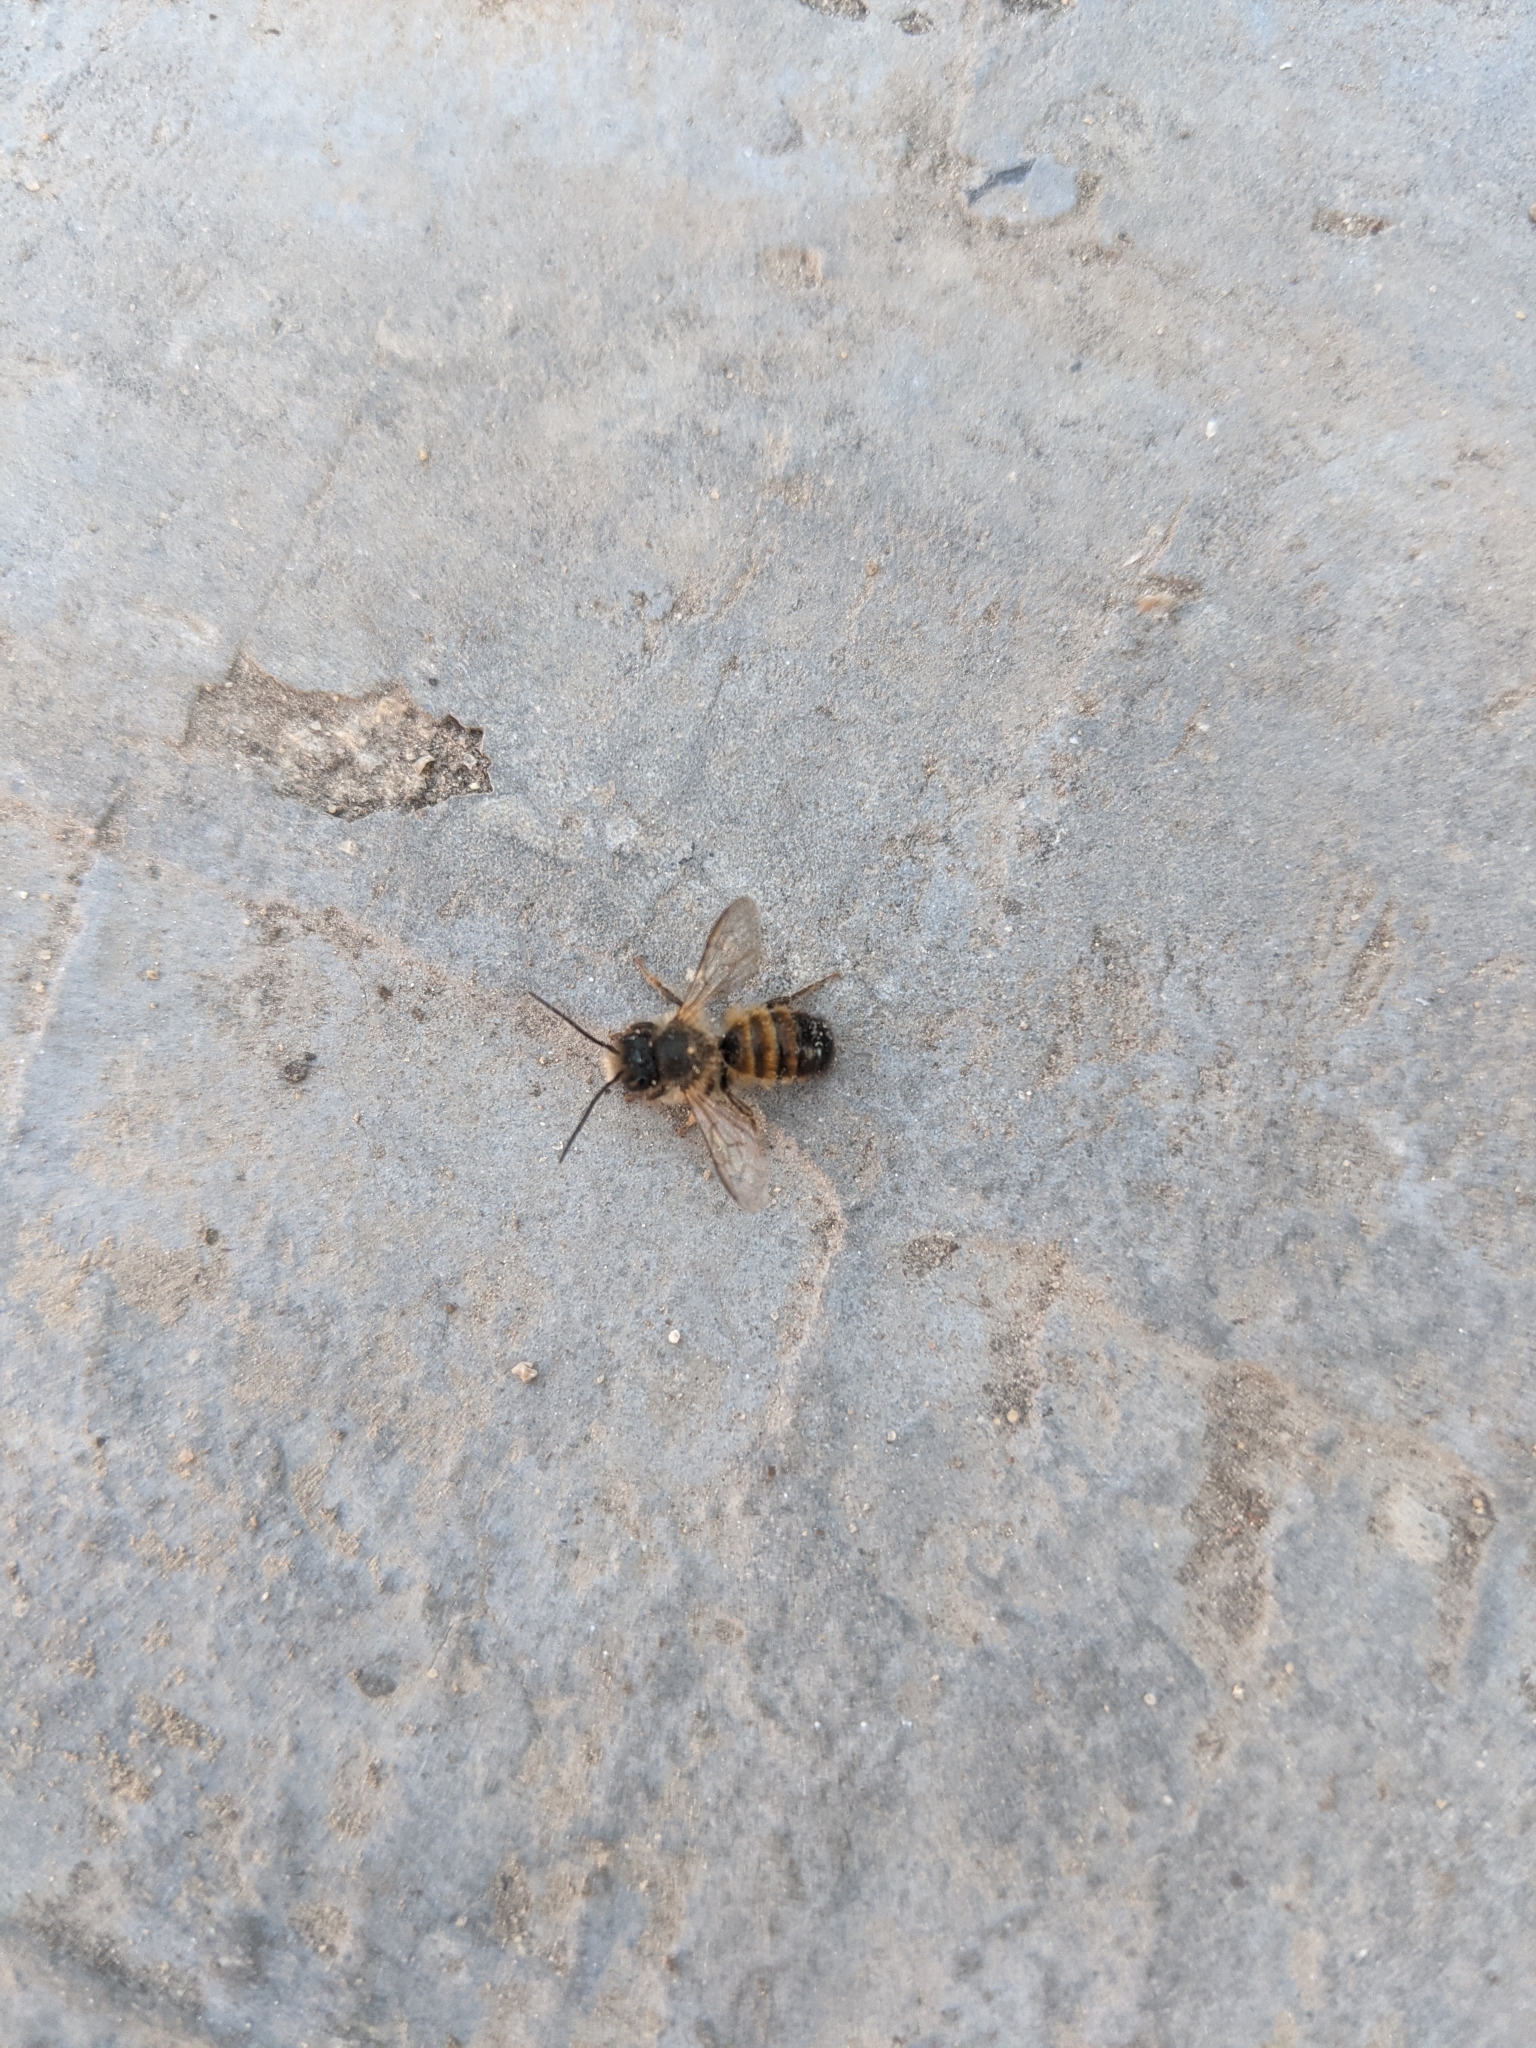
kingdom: Animalia
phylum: Arthropoda
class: Insecta
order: Hymenoptera
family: Megachilidae
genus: Osmia
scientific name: Osmia bicornis
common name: Red mason bee
